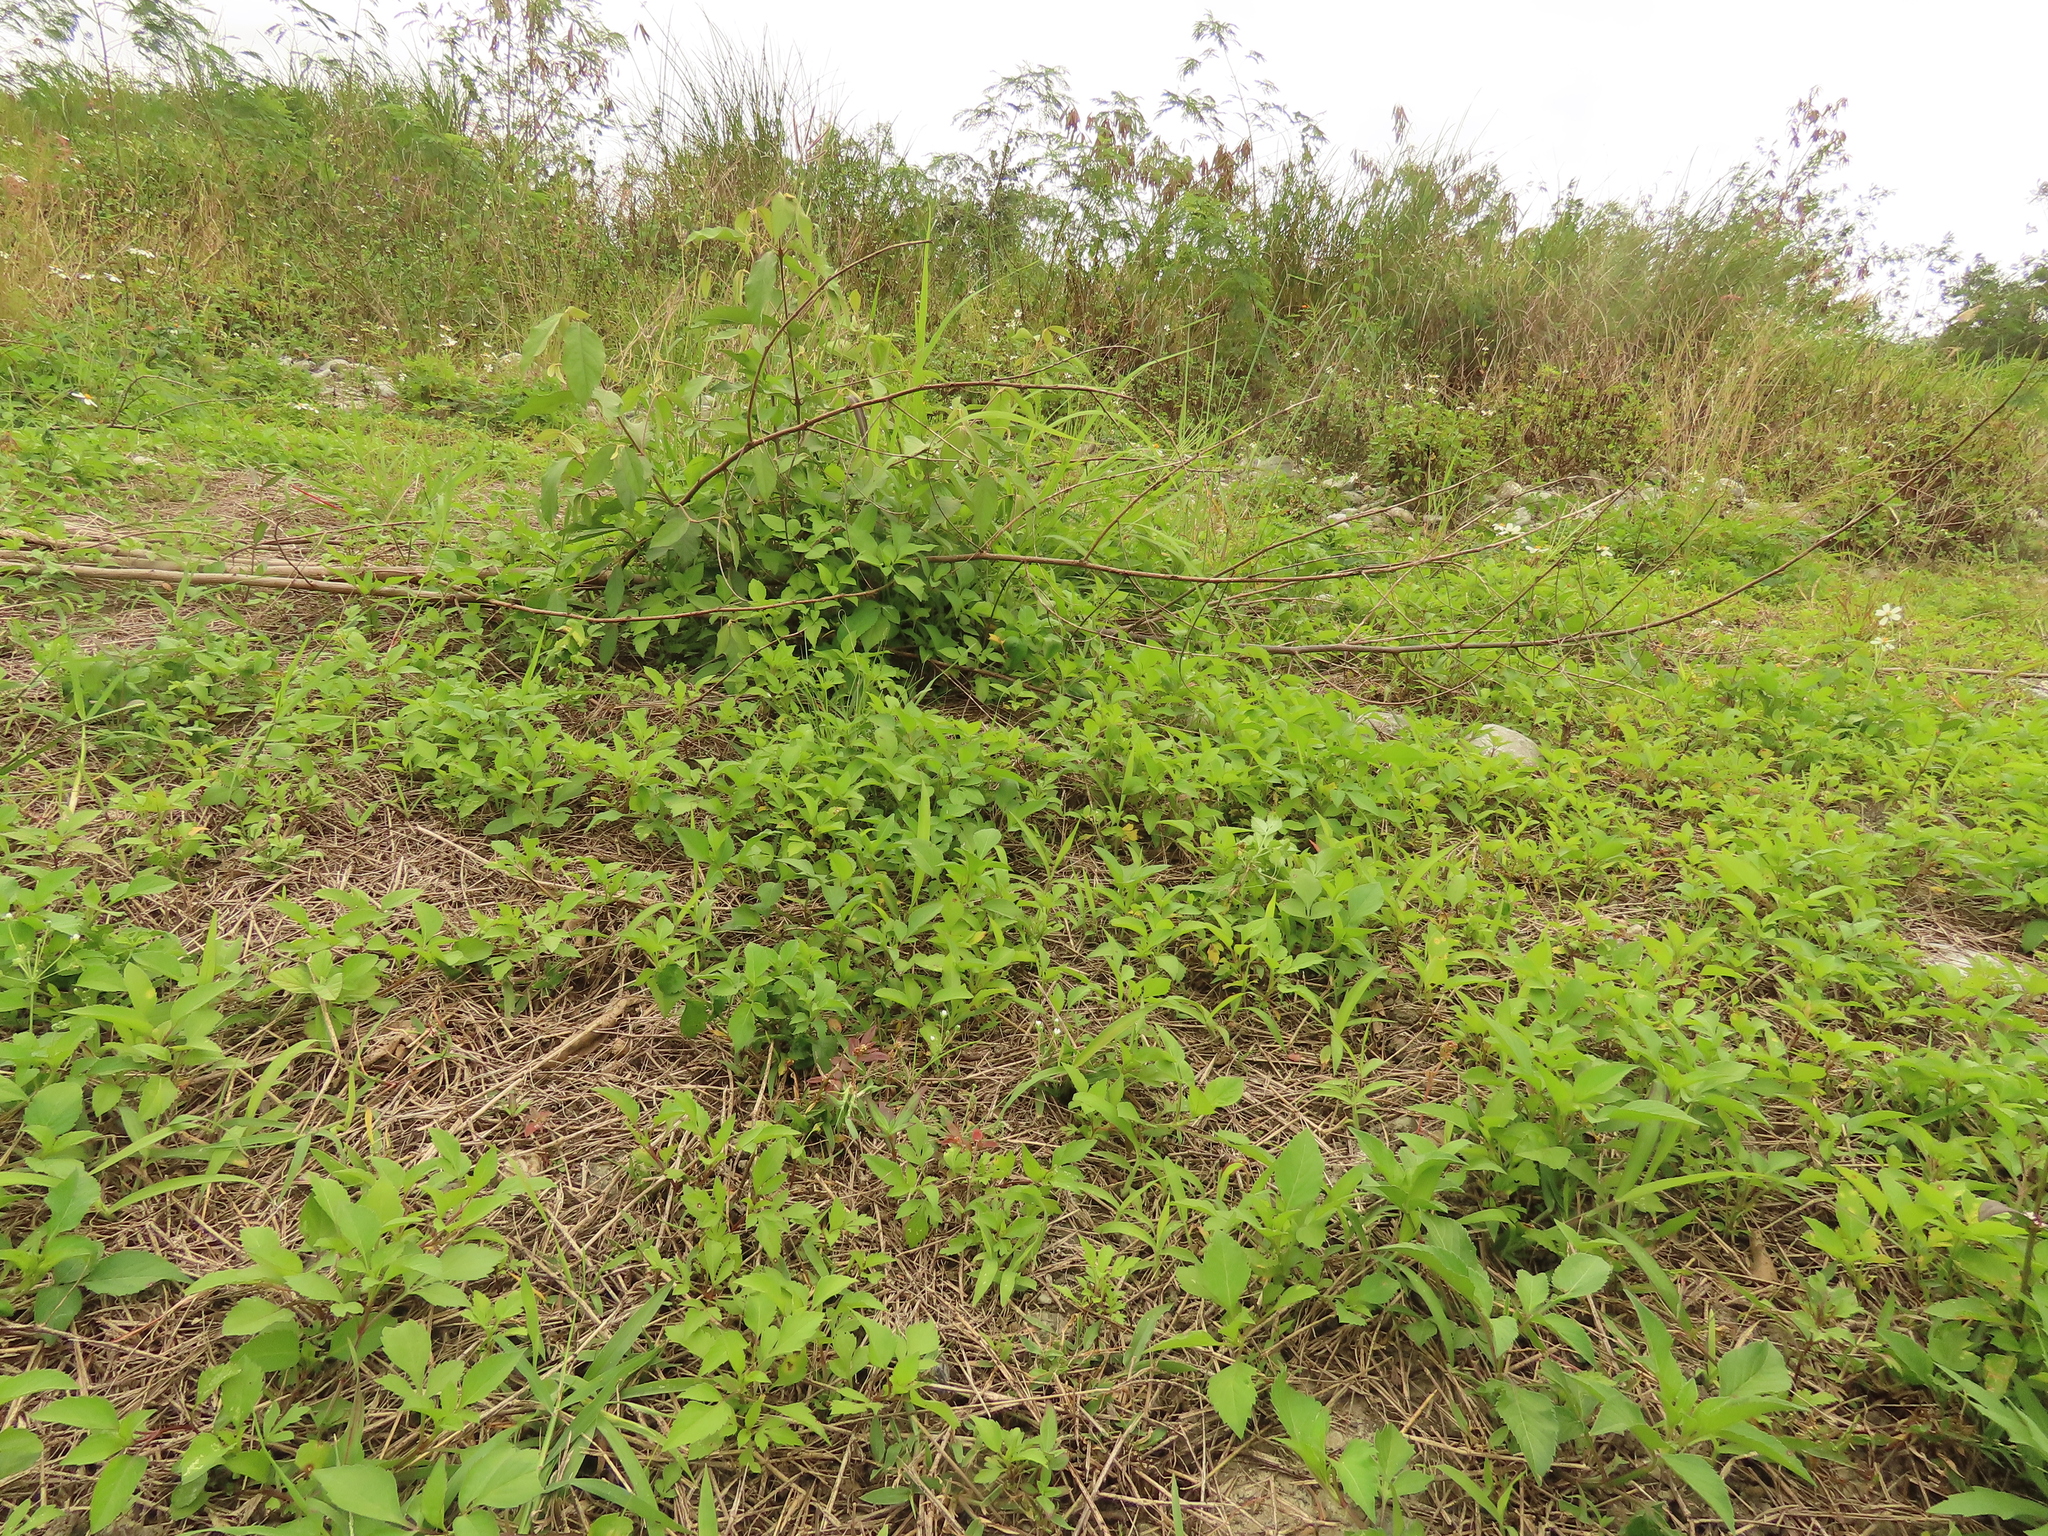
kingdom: Plantae
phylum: Tracheophyta
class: Magnoliopsida
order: Ericales
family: Primulaceae
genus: Androsace
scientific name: Androsace umbellata
